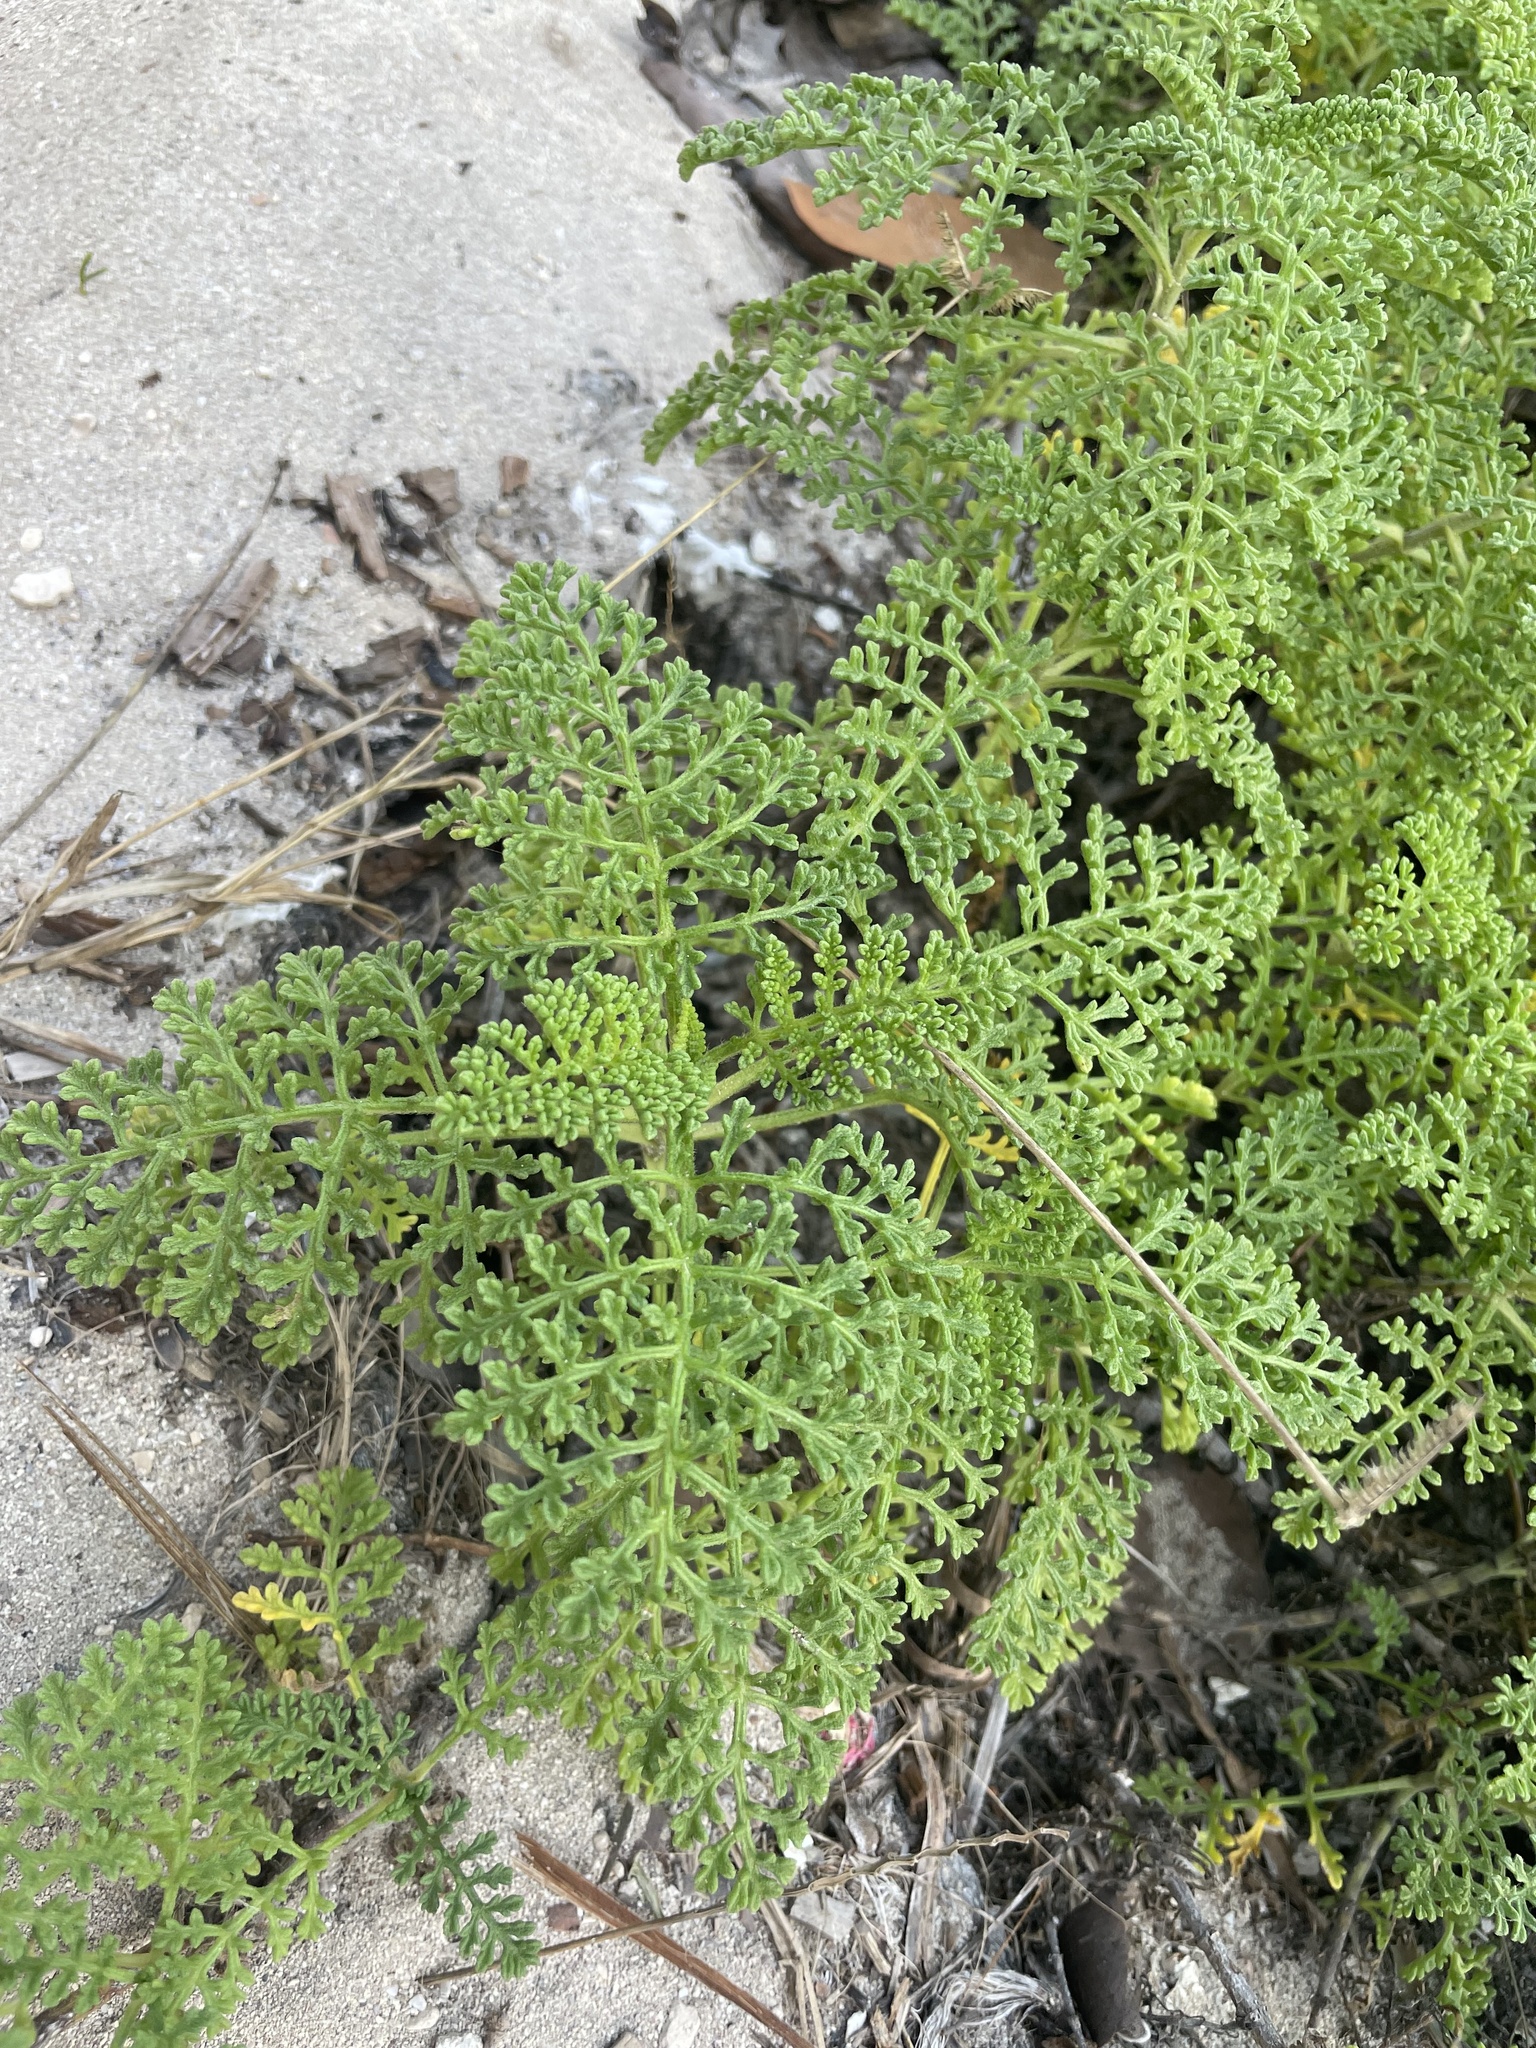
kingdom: Plantae
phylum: Tracheophyta
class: Magnoliopsida
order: Asterales
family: Asteraceae
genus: Ambrosia
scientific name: Ambrosia hispida
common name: Coastal ragweed
